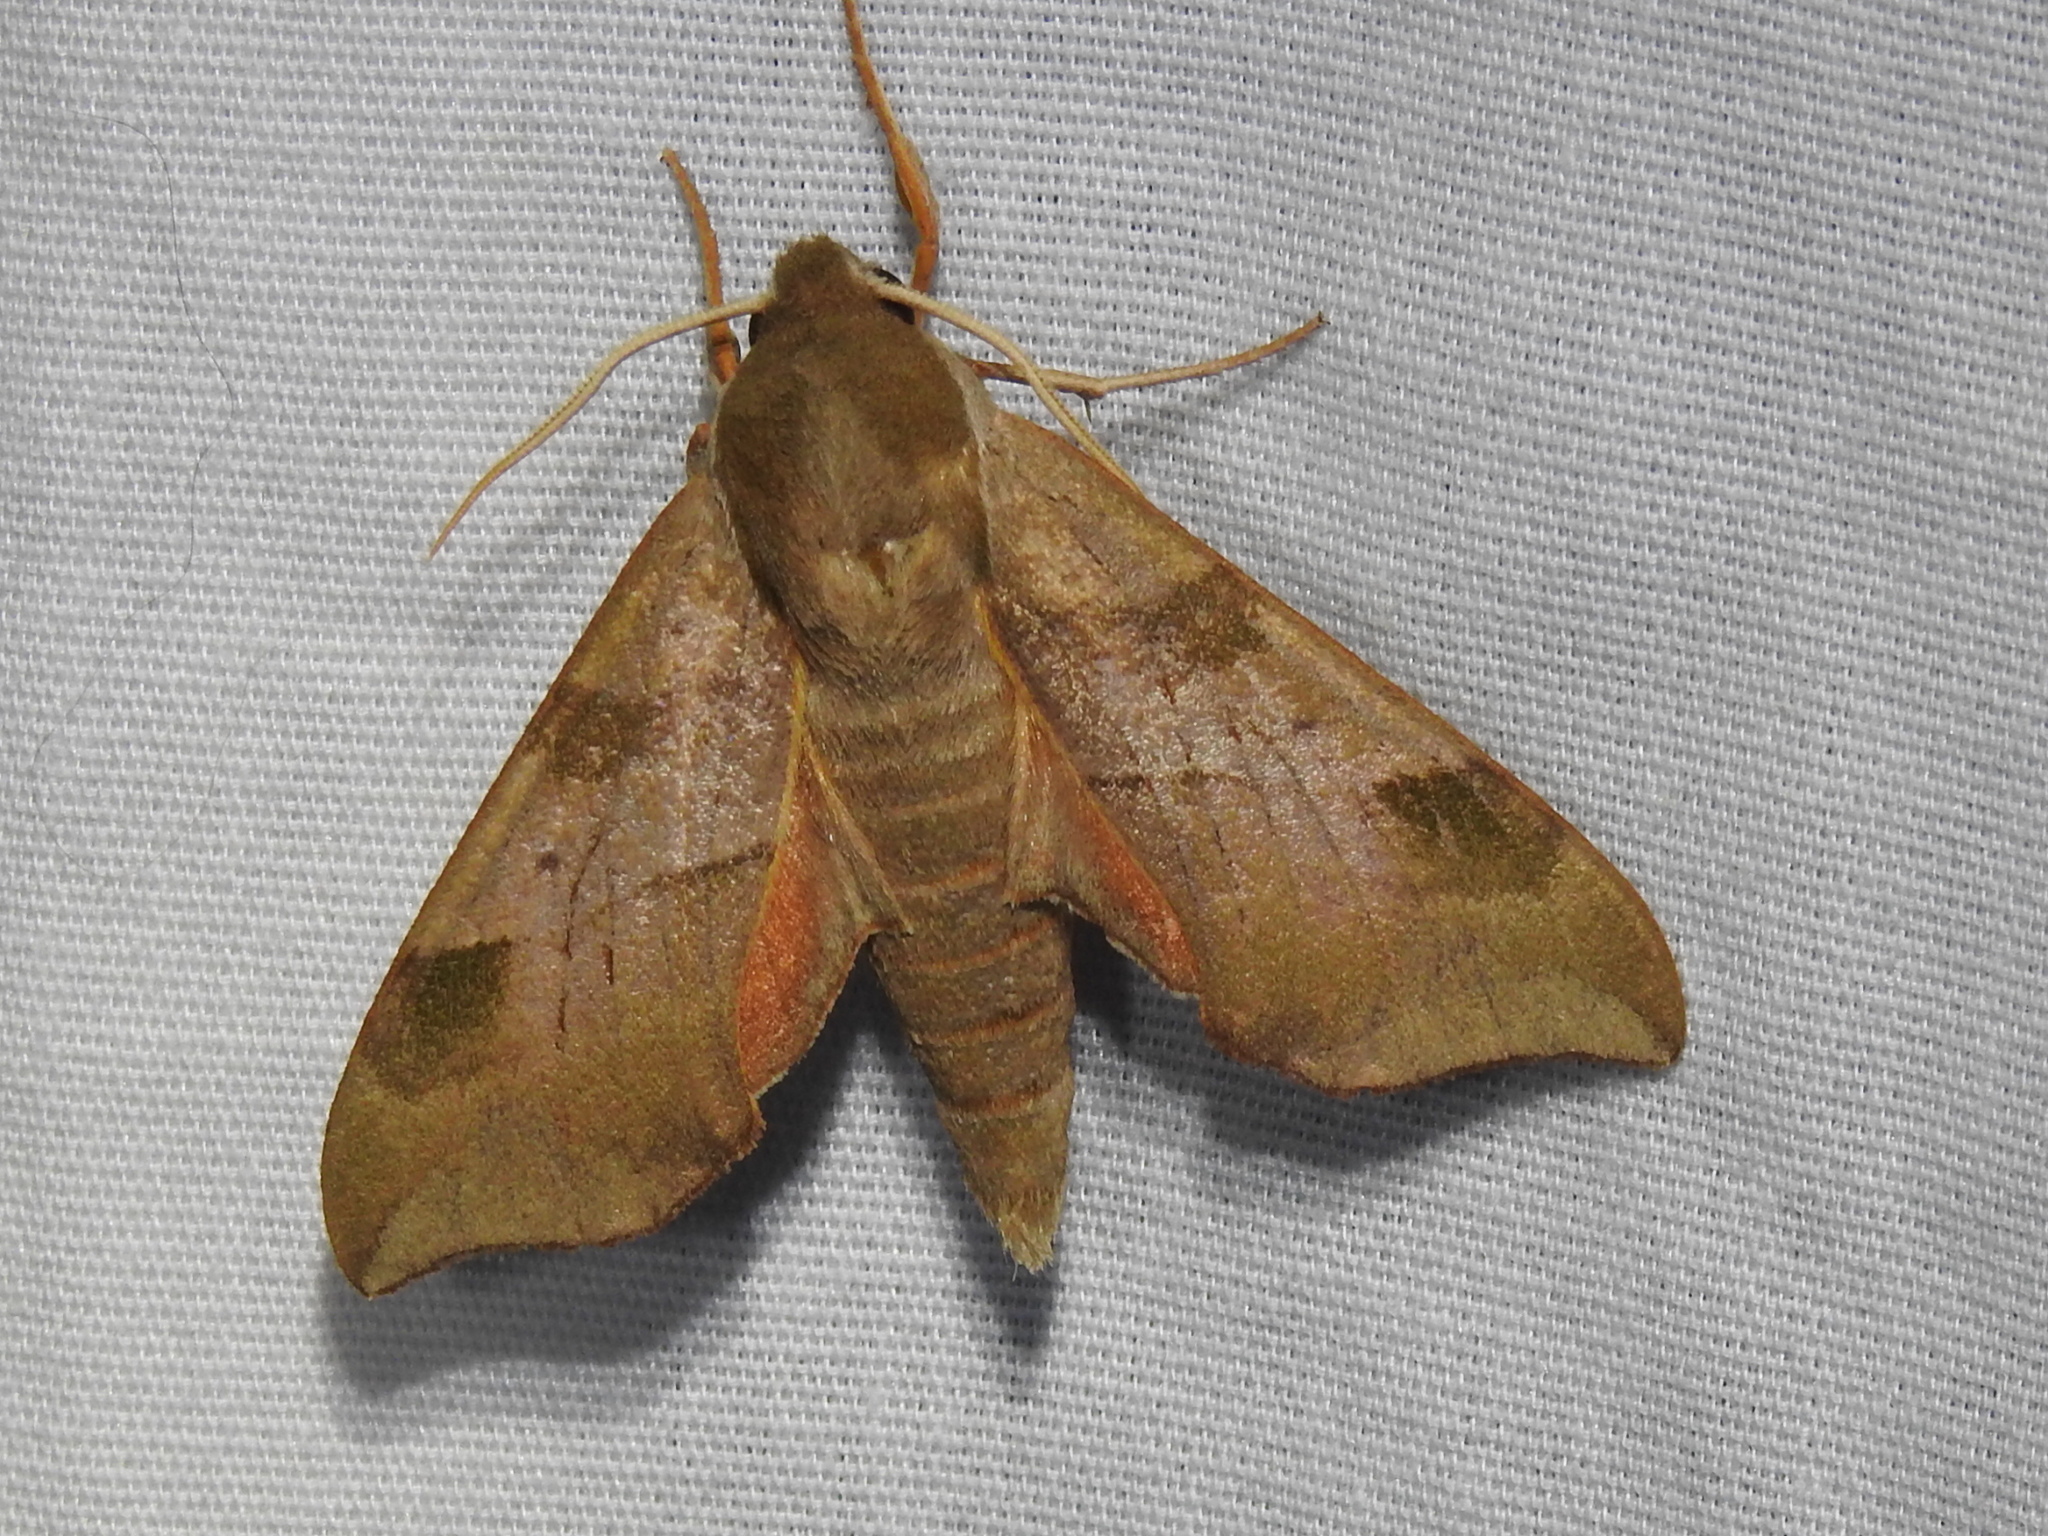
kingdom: Animalia
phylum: Arthropoda
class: Insecta
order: Lepidoptera
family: Sphingidae
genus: Darapsa
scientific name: Darapsa myron
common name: Hog sphinx
